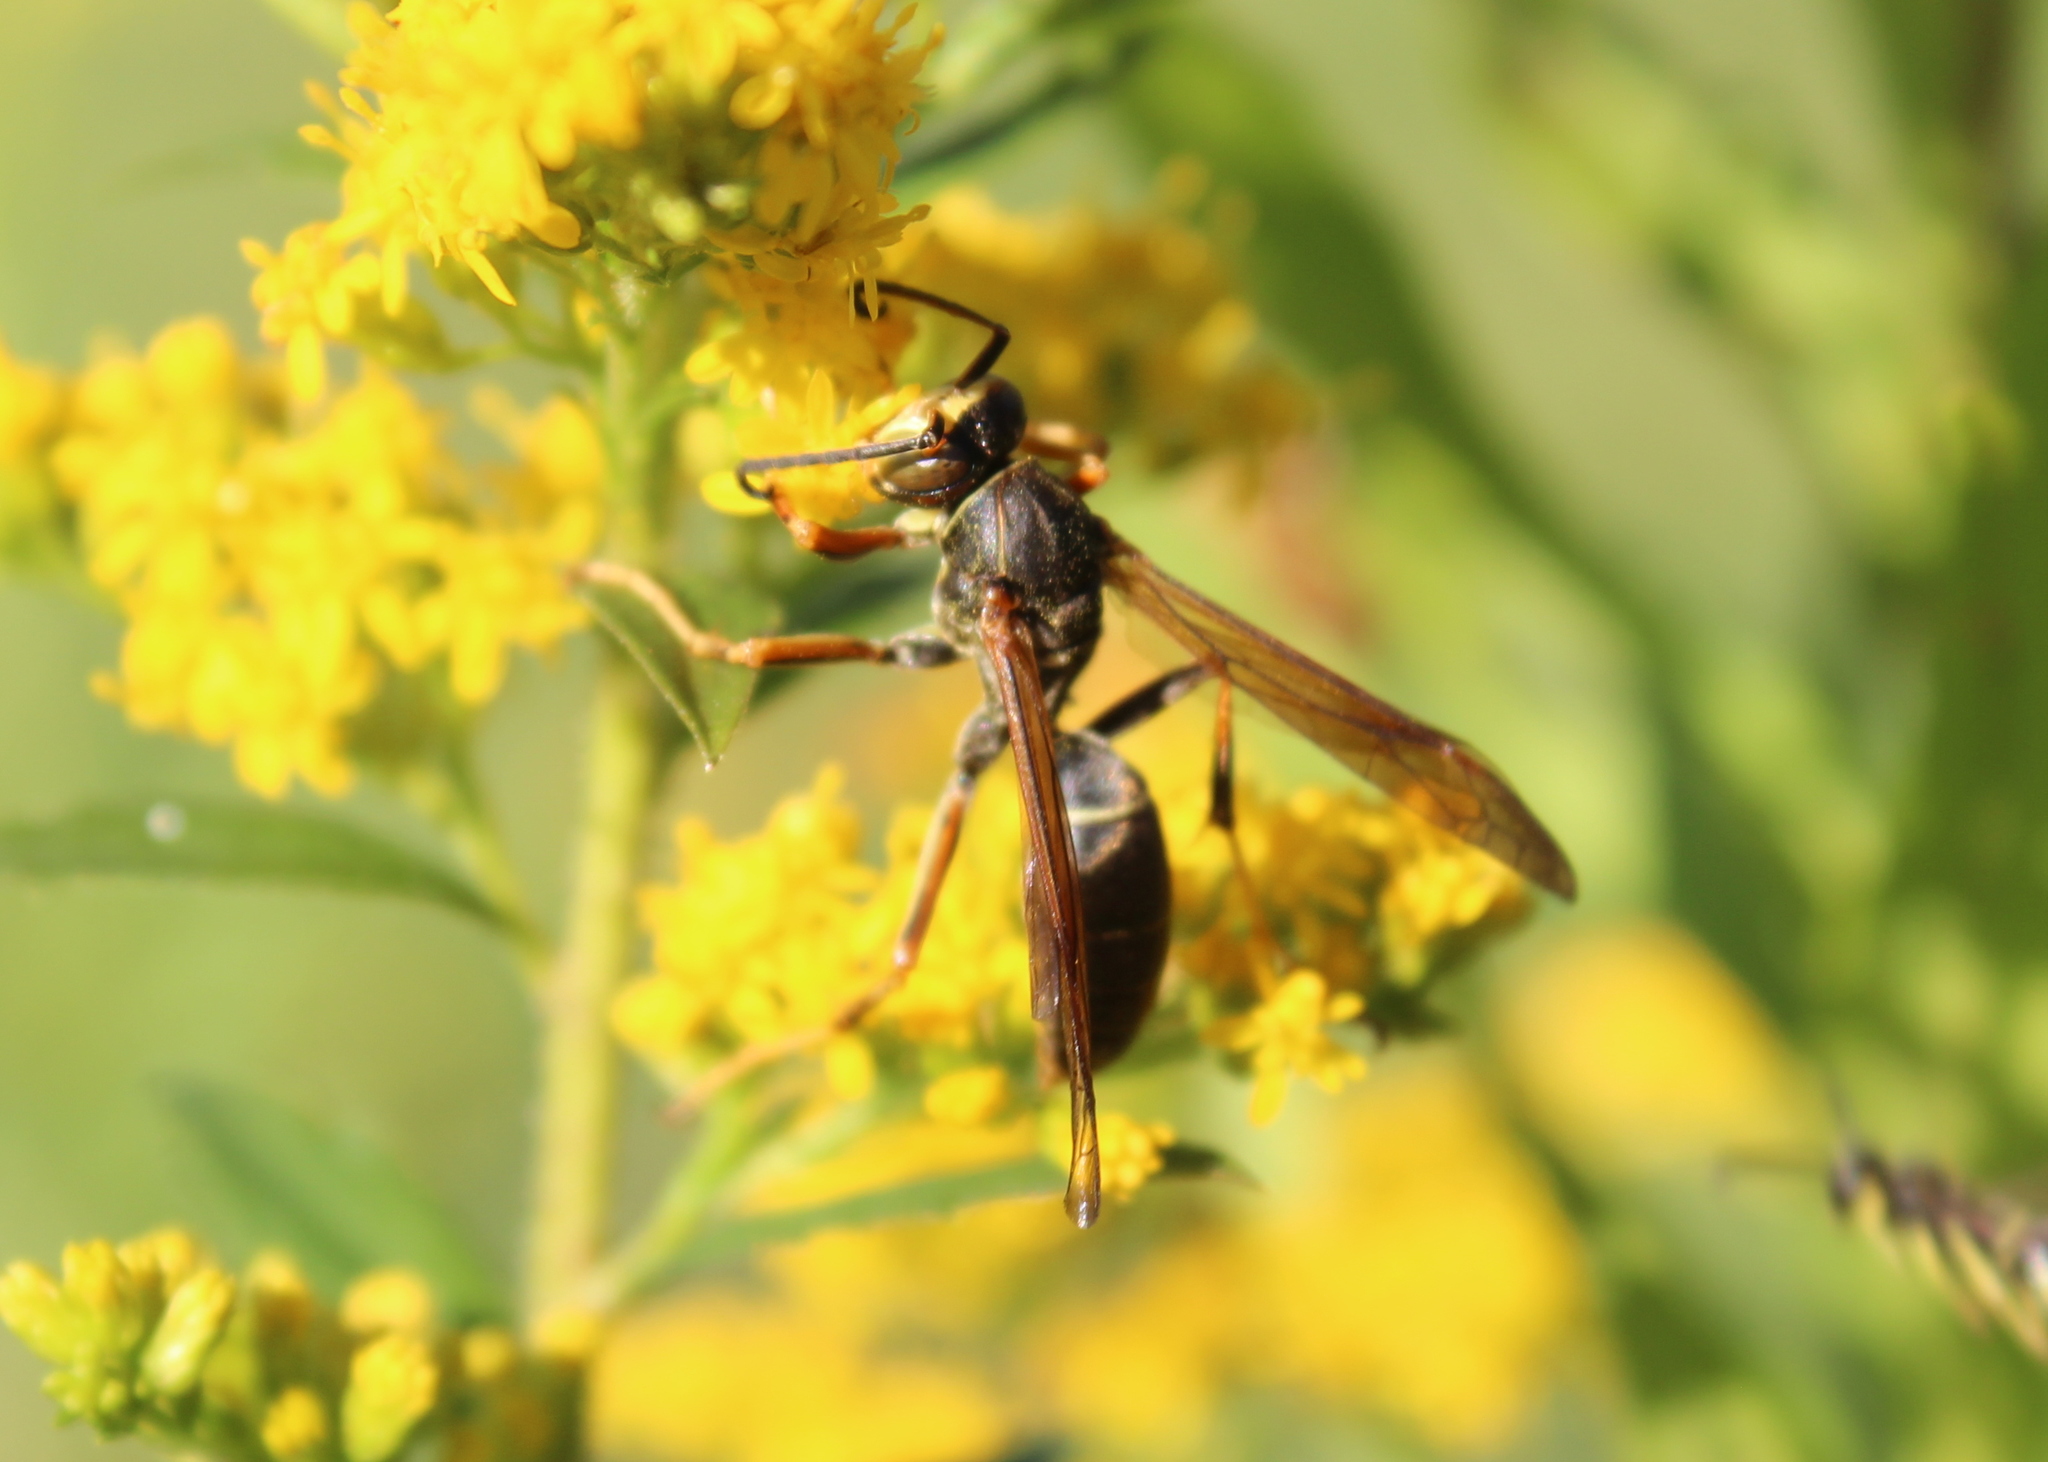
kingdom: Animalia
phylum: Arthropoda
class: Insecta
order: Hymenoptera
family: Eumenidae
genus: Polistes
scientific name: Polistes fuscatus
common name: Dark paper wasp
